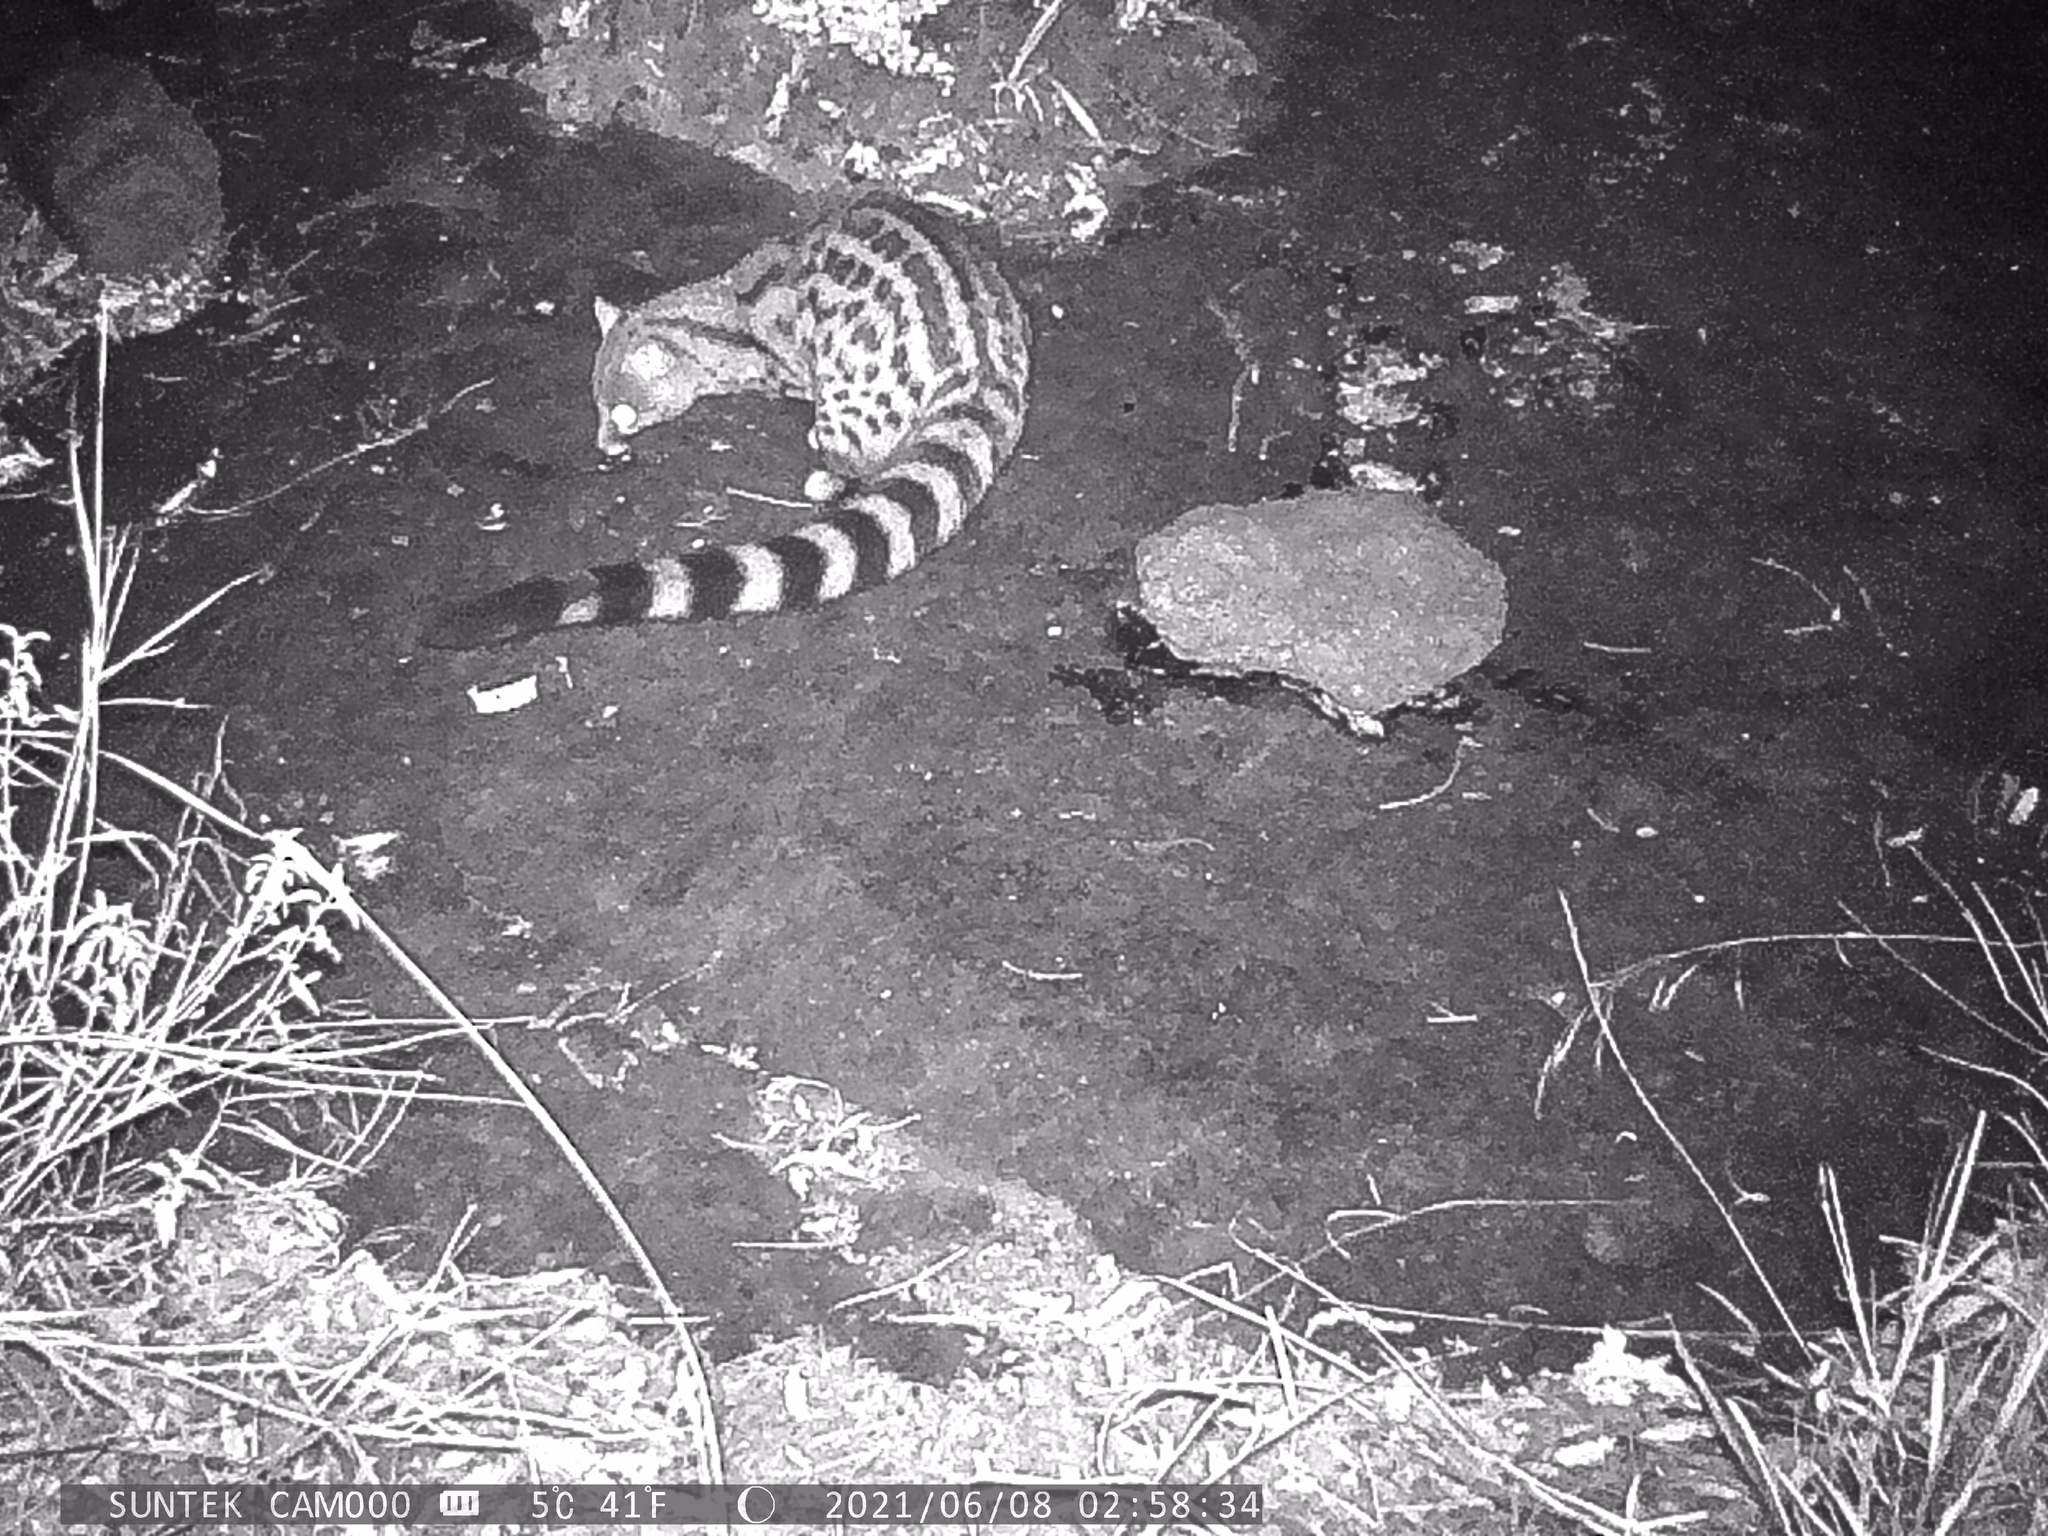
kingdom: Animalia
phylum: Chordata
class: Mammalia
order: Carnivora
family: Viverridae
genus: Genetta
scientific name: Genetta maculata
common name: Rusty-spotted genet
